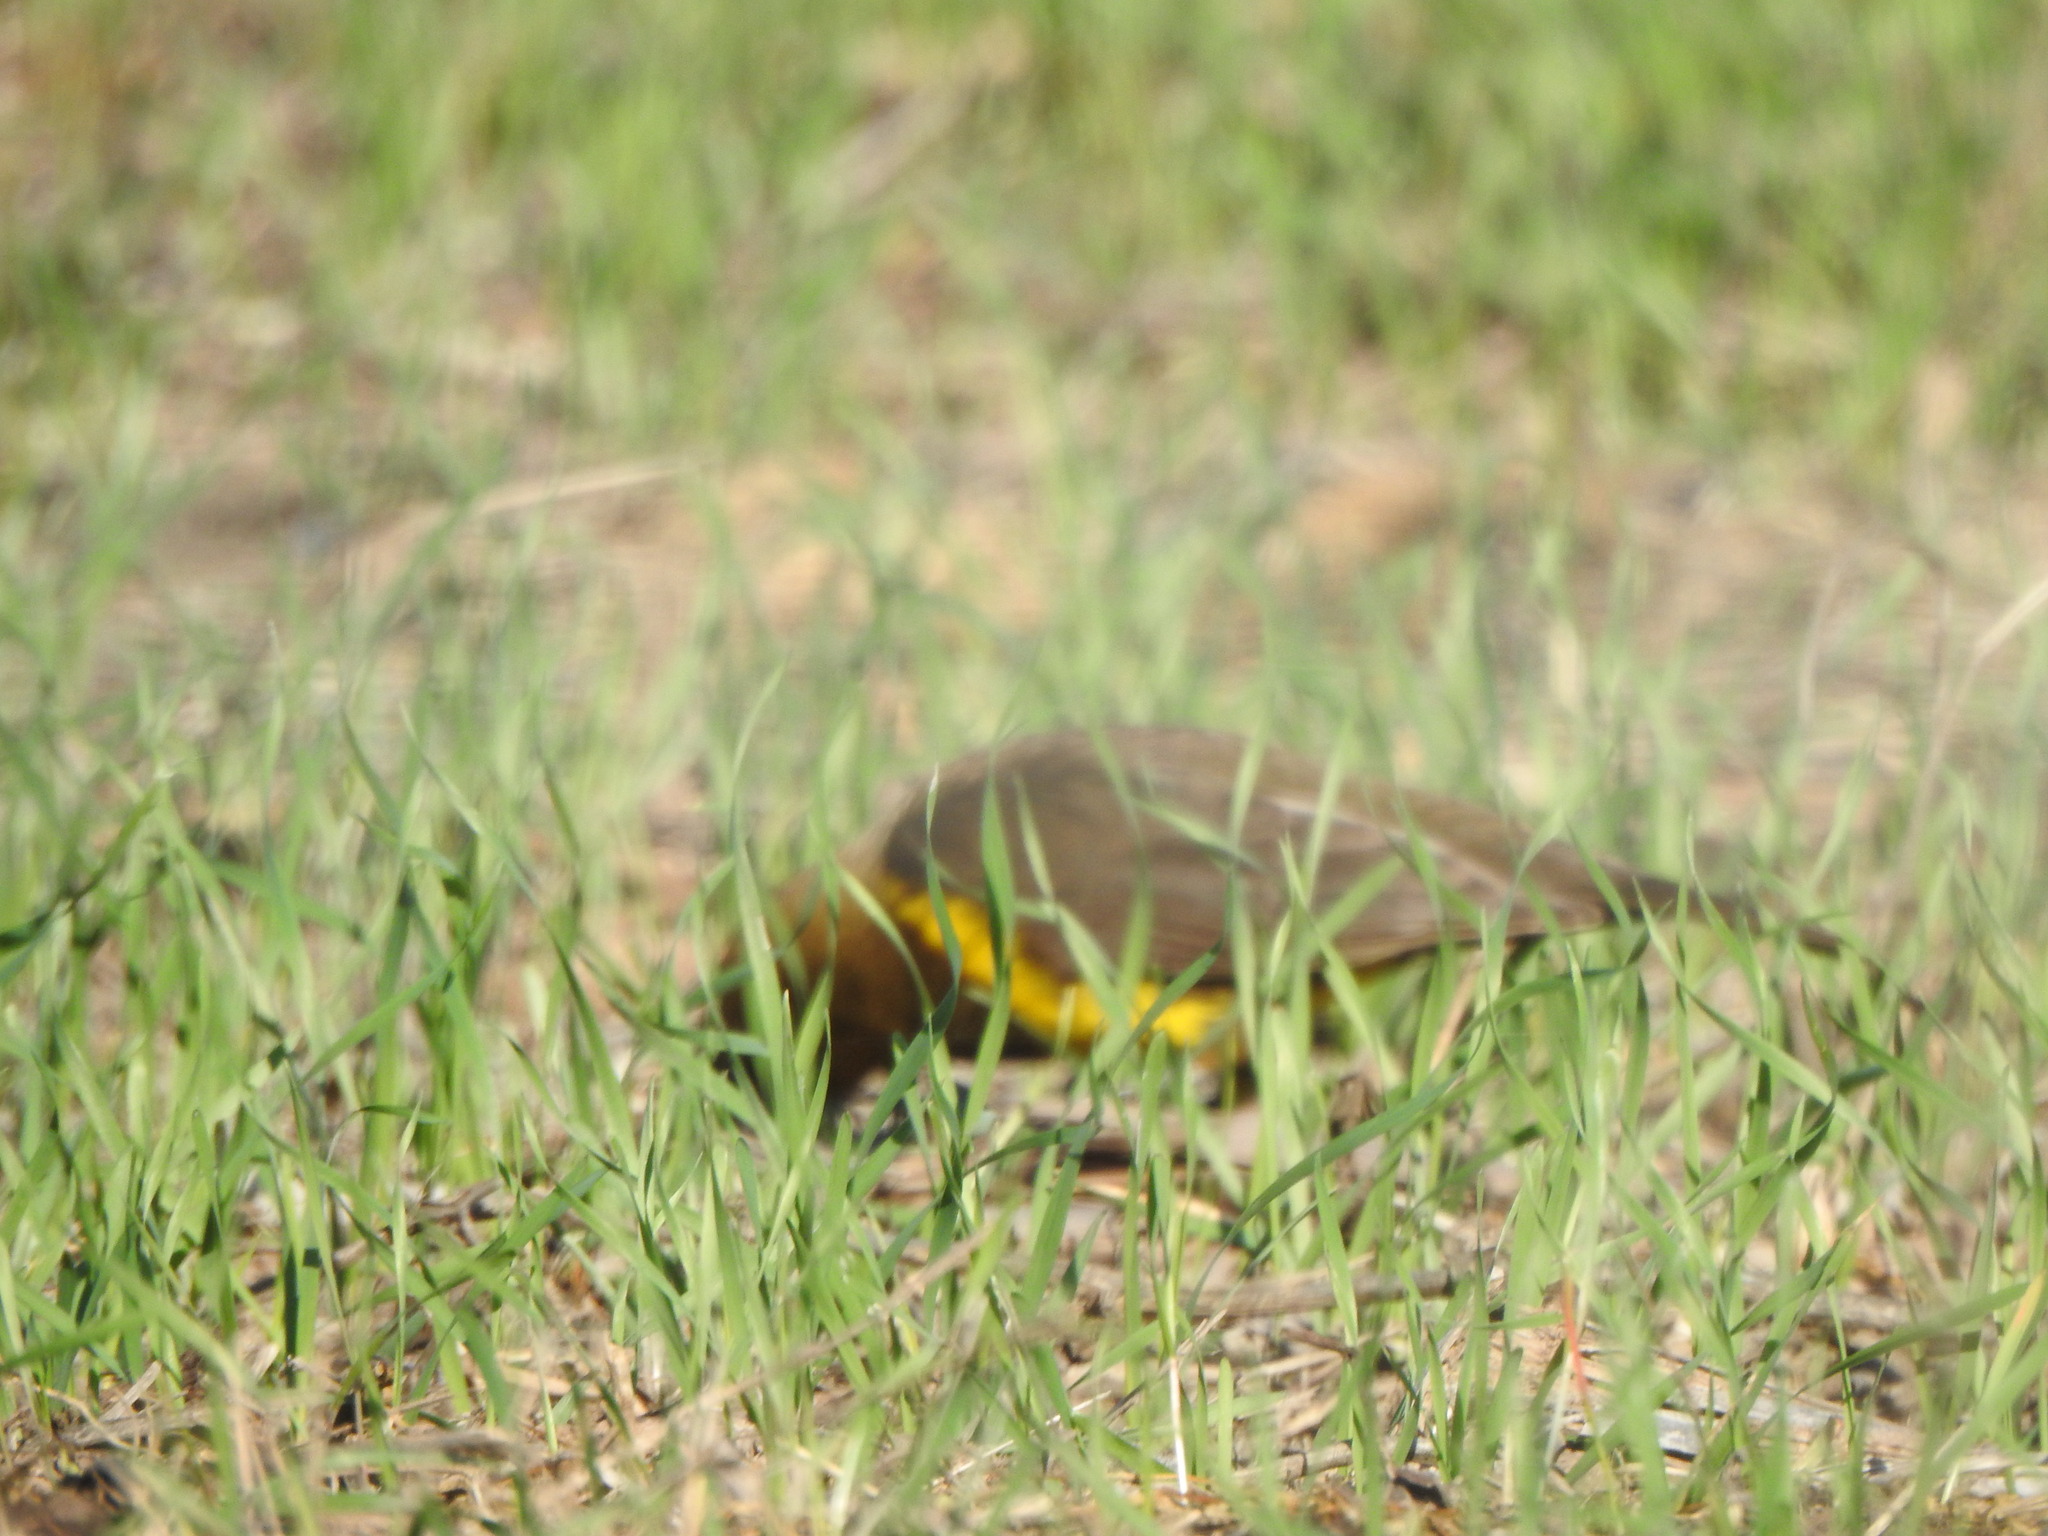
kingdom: Animalia
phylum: Chordata
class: Aves
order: Passeriformes
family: Icteridae
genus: Pseudoleistes
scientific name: Pseudoleistes virescens
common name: Brown-and-yellow marshbird
